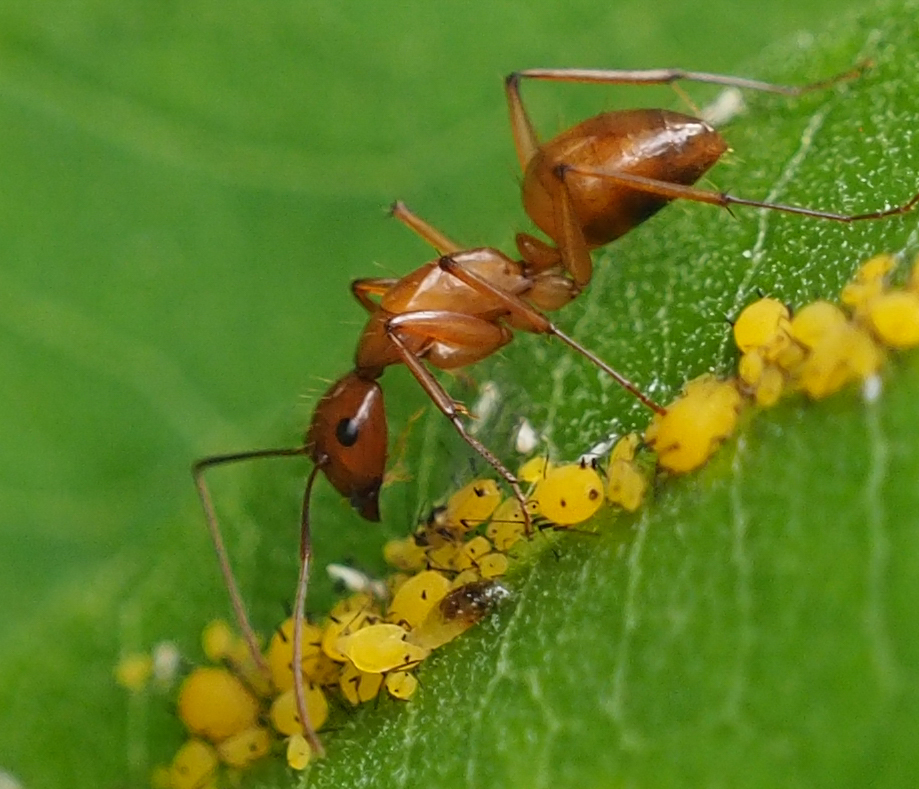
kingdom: Animalia
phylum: Arthropoda
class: Insecta
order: Hymenoptera
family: Formicidae
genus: Camponotus
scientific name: Camponotus castaneus
